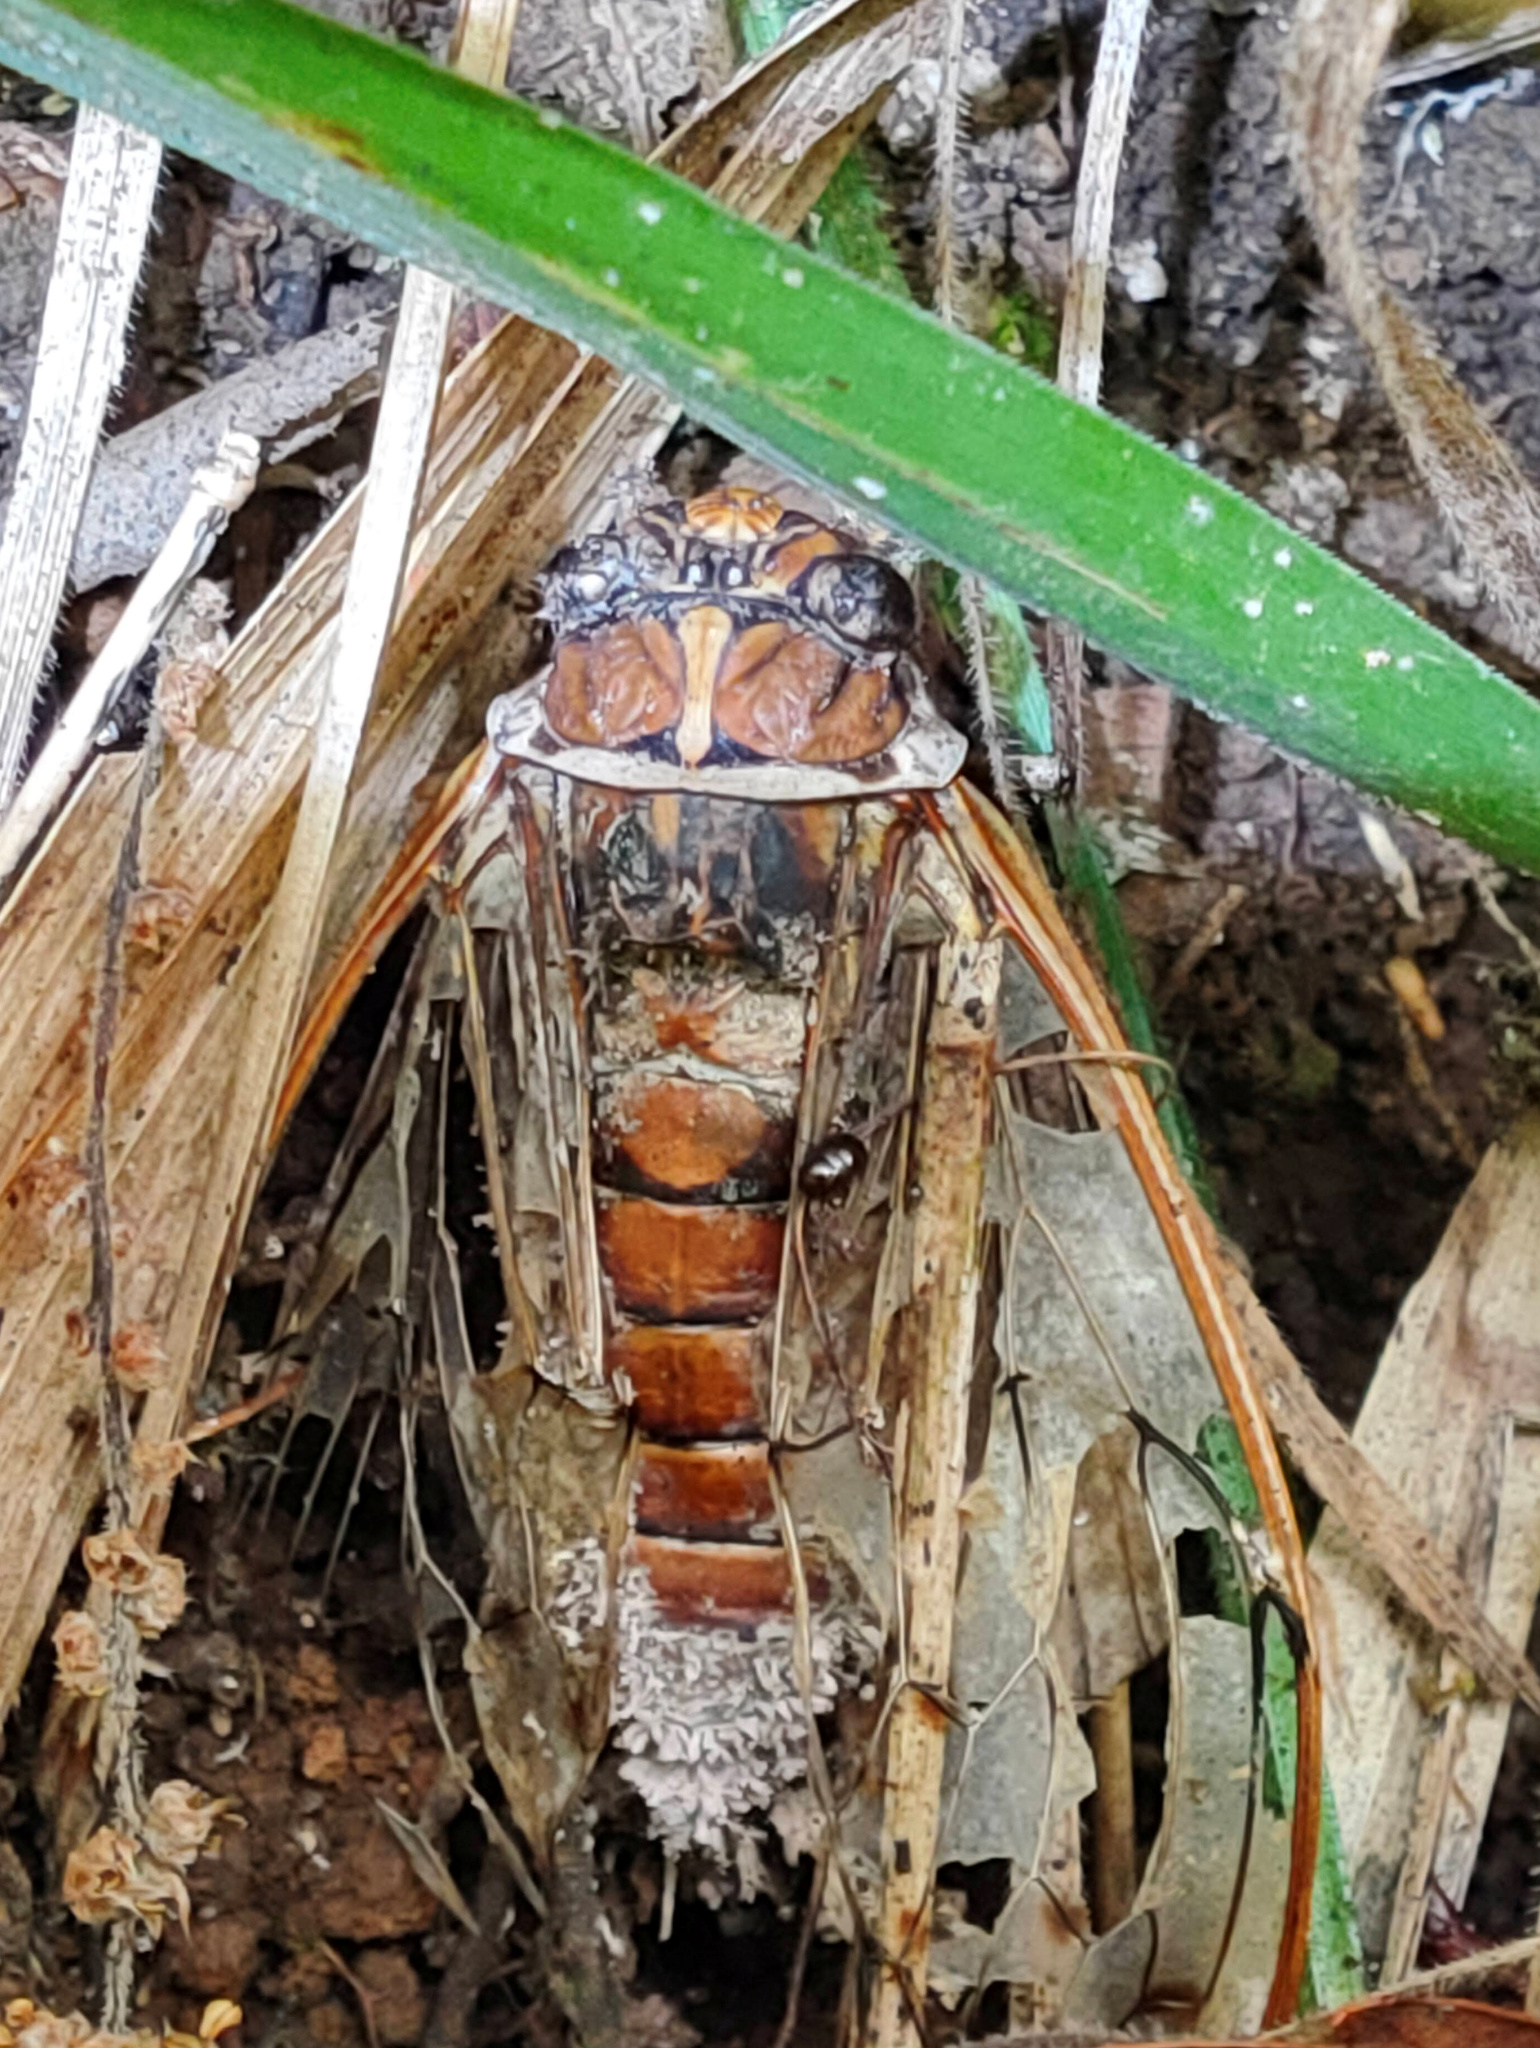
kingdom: Fungi
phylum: Ascomycota
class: Sordariomycetes
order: Hypocreales
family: Ophiocordycipitaceae
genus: Purpureocillium
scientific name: Purpureocillium takamizusanense
